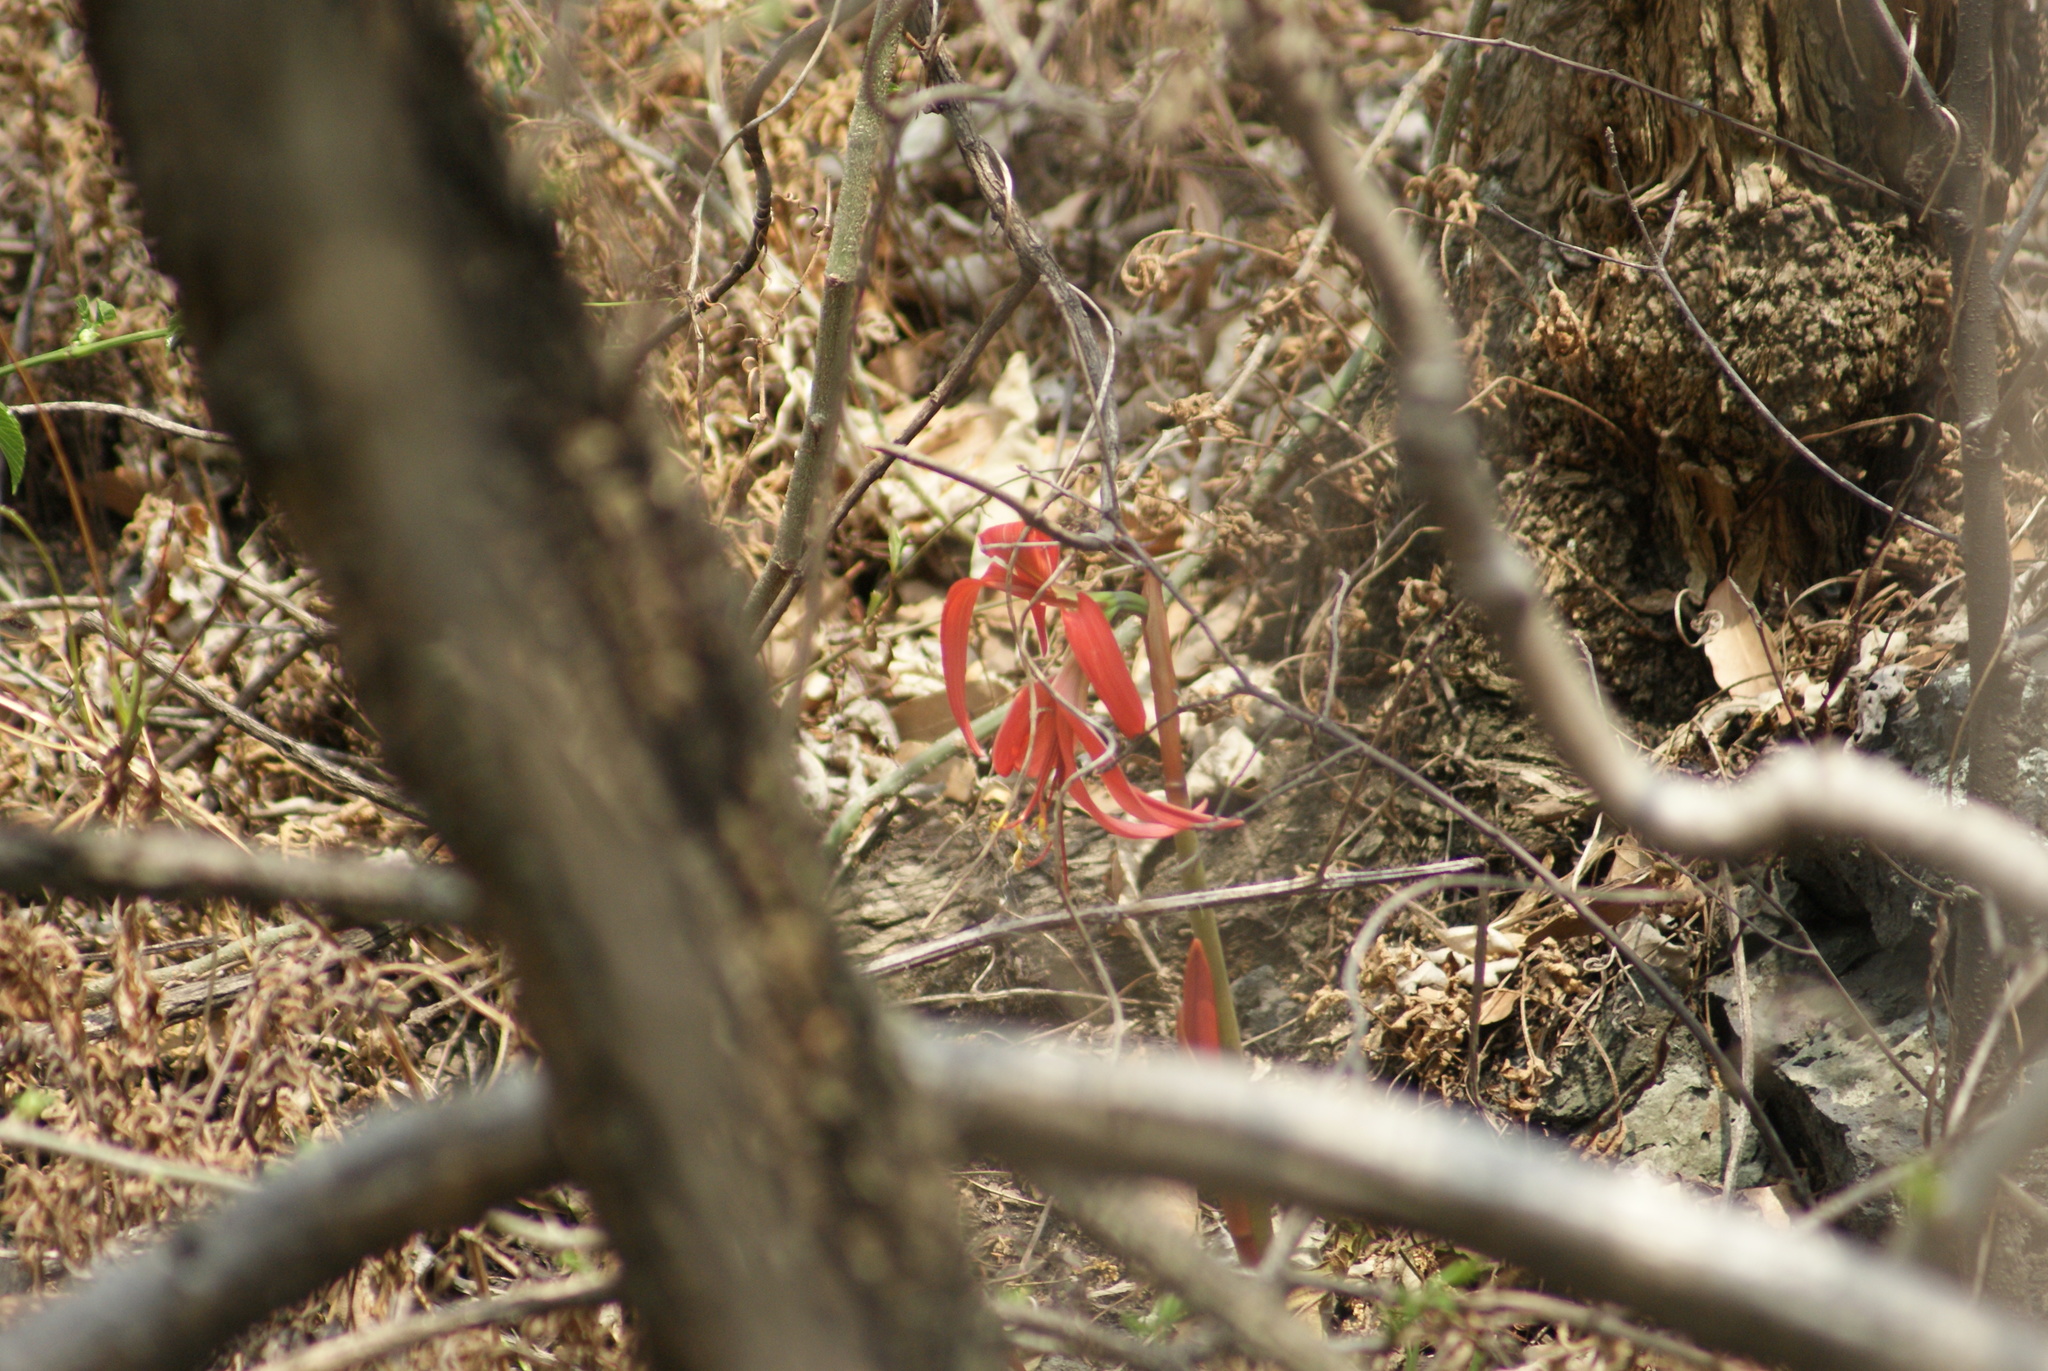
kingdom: Plantae
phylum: Tracheophyta
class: Liliopsida
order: Asparagales
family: Amaryllidaceae
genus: Sprekelia
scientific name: Sprekelia formosissima
